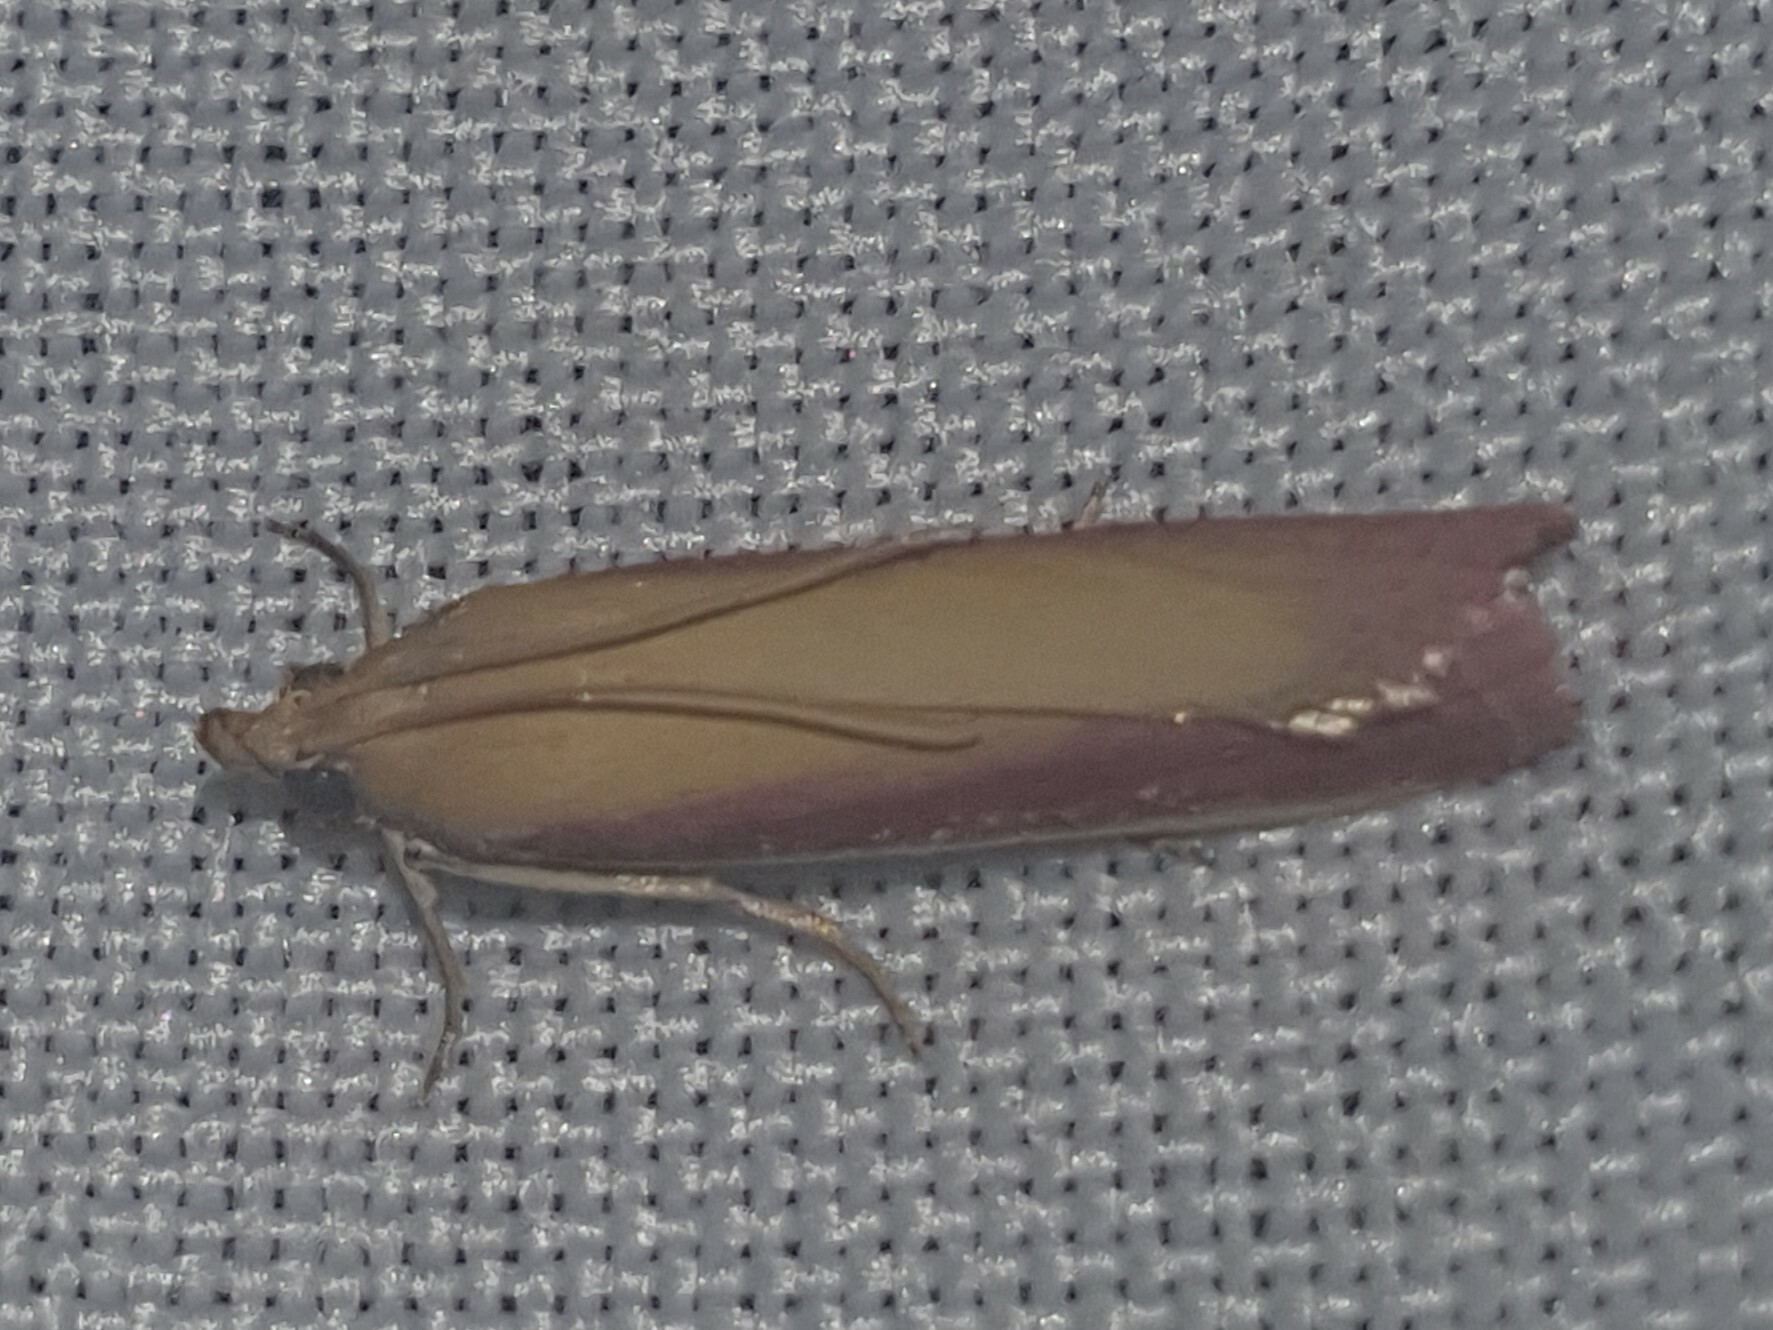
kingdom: Animalia
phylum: Arthropoda
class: Insecta
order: Lepidoptera
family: Pyralidae
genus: Oncocera
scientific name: Oncocera semirubella
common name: Rosy-striped knot-horn
